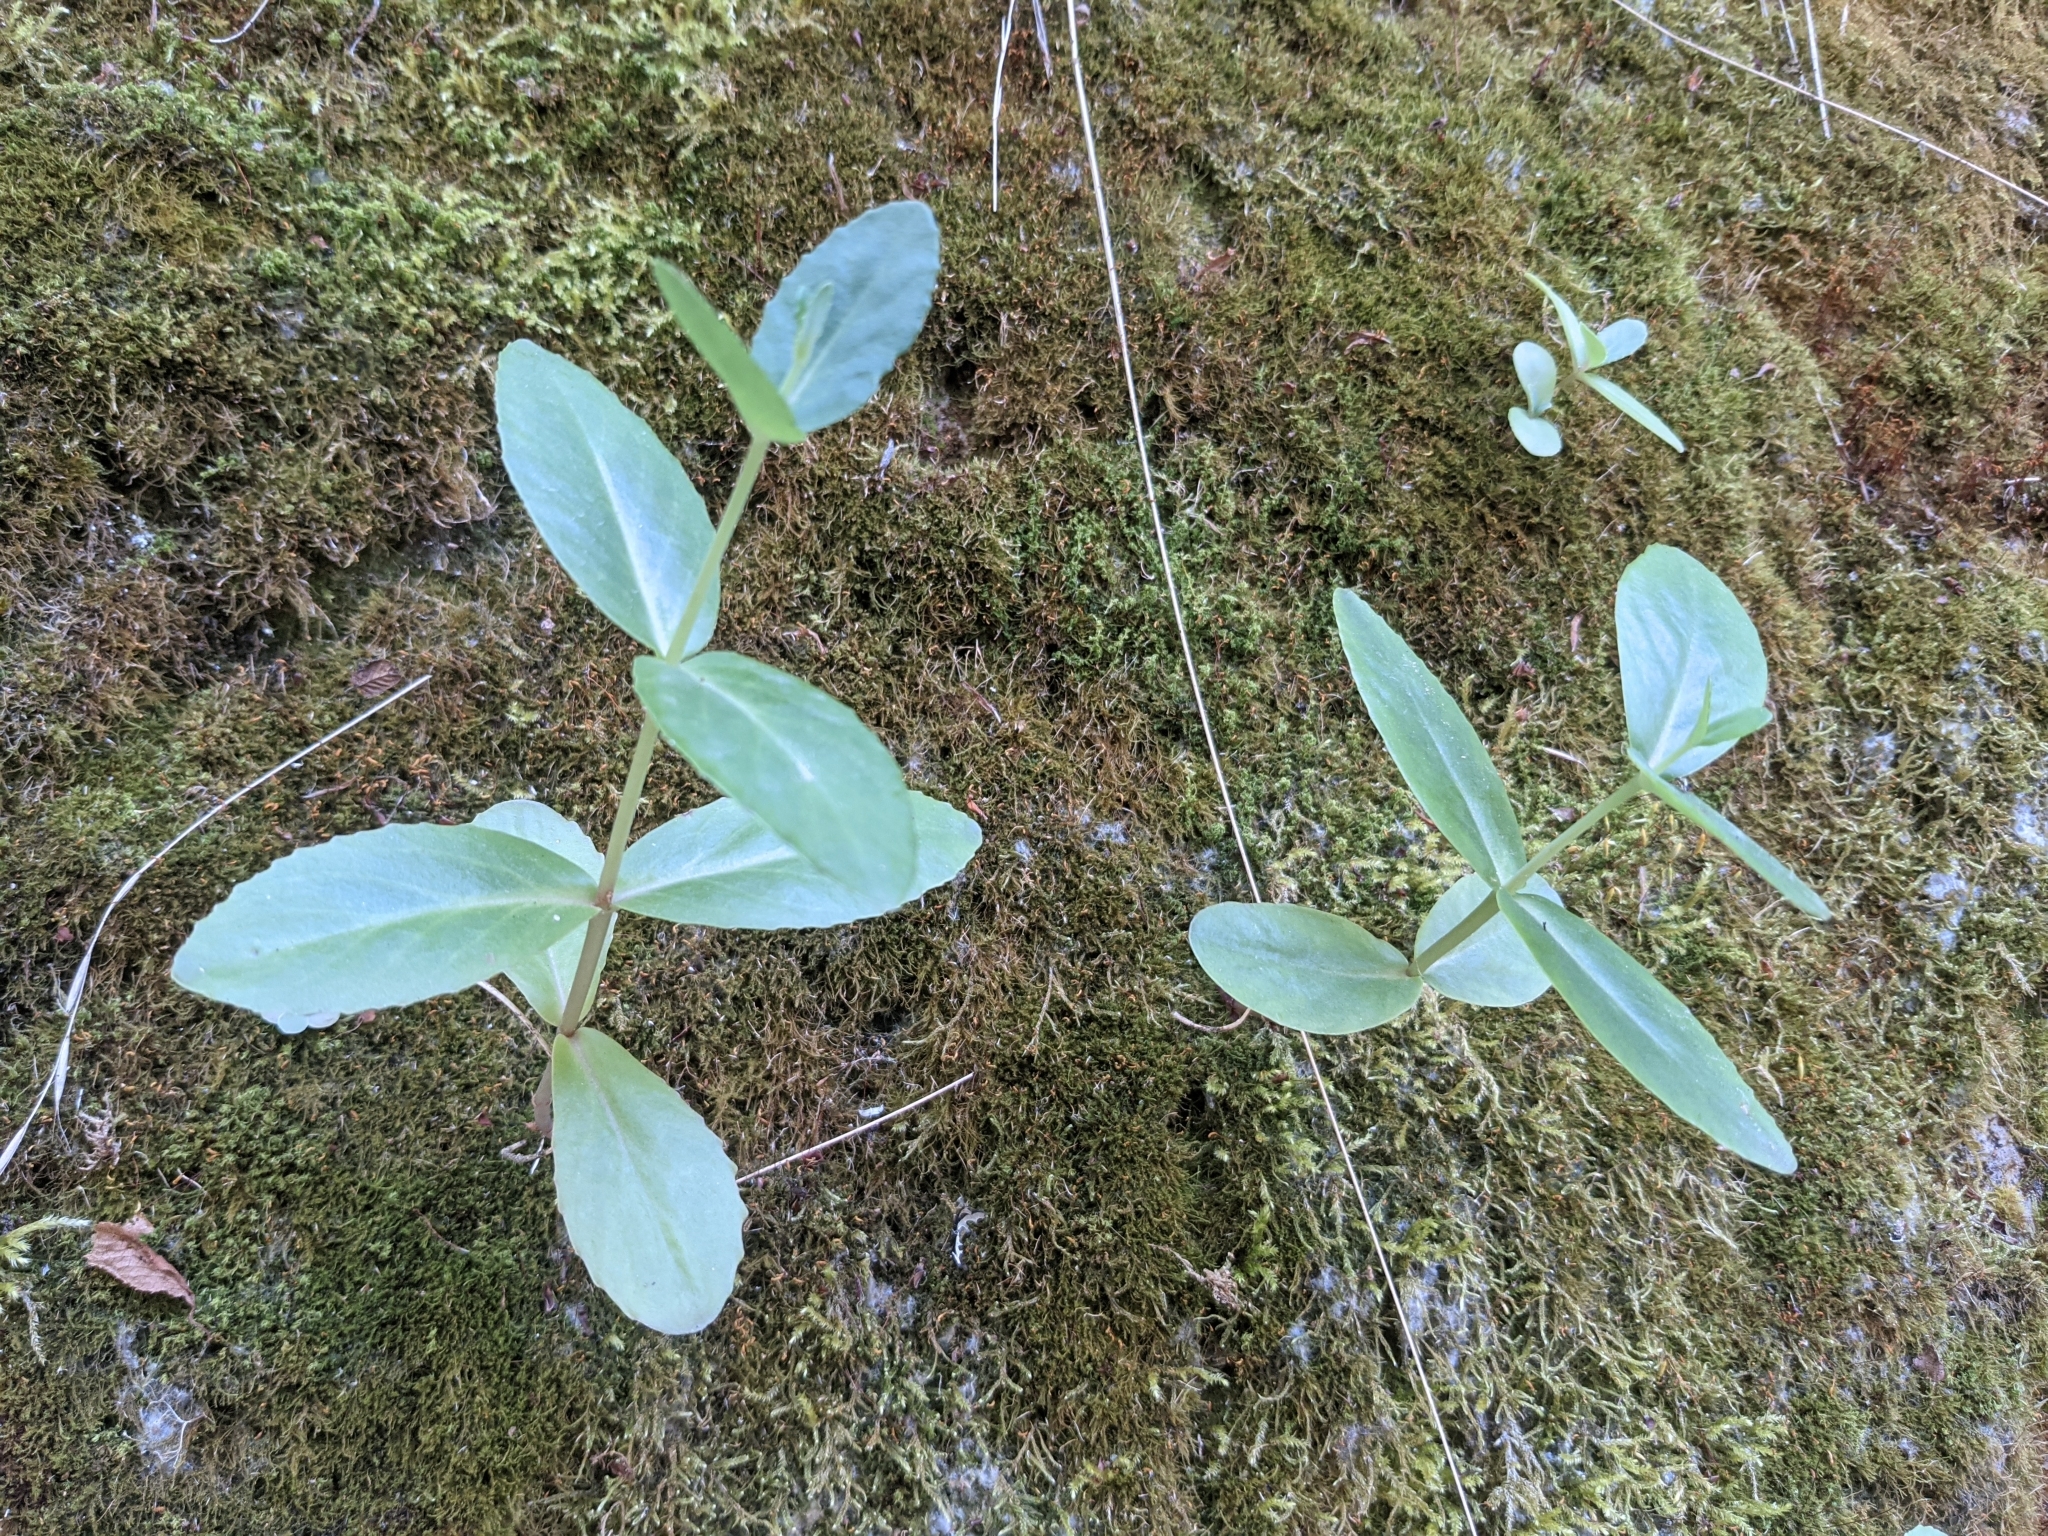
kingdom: Plantae
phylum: Tracheophyta
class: Magnoliopsida
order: Saxifragales
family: Crassulaceae
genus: Hylotelephium
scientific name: Hylotelephium maximum
